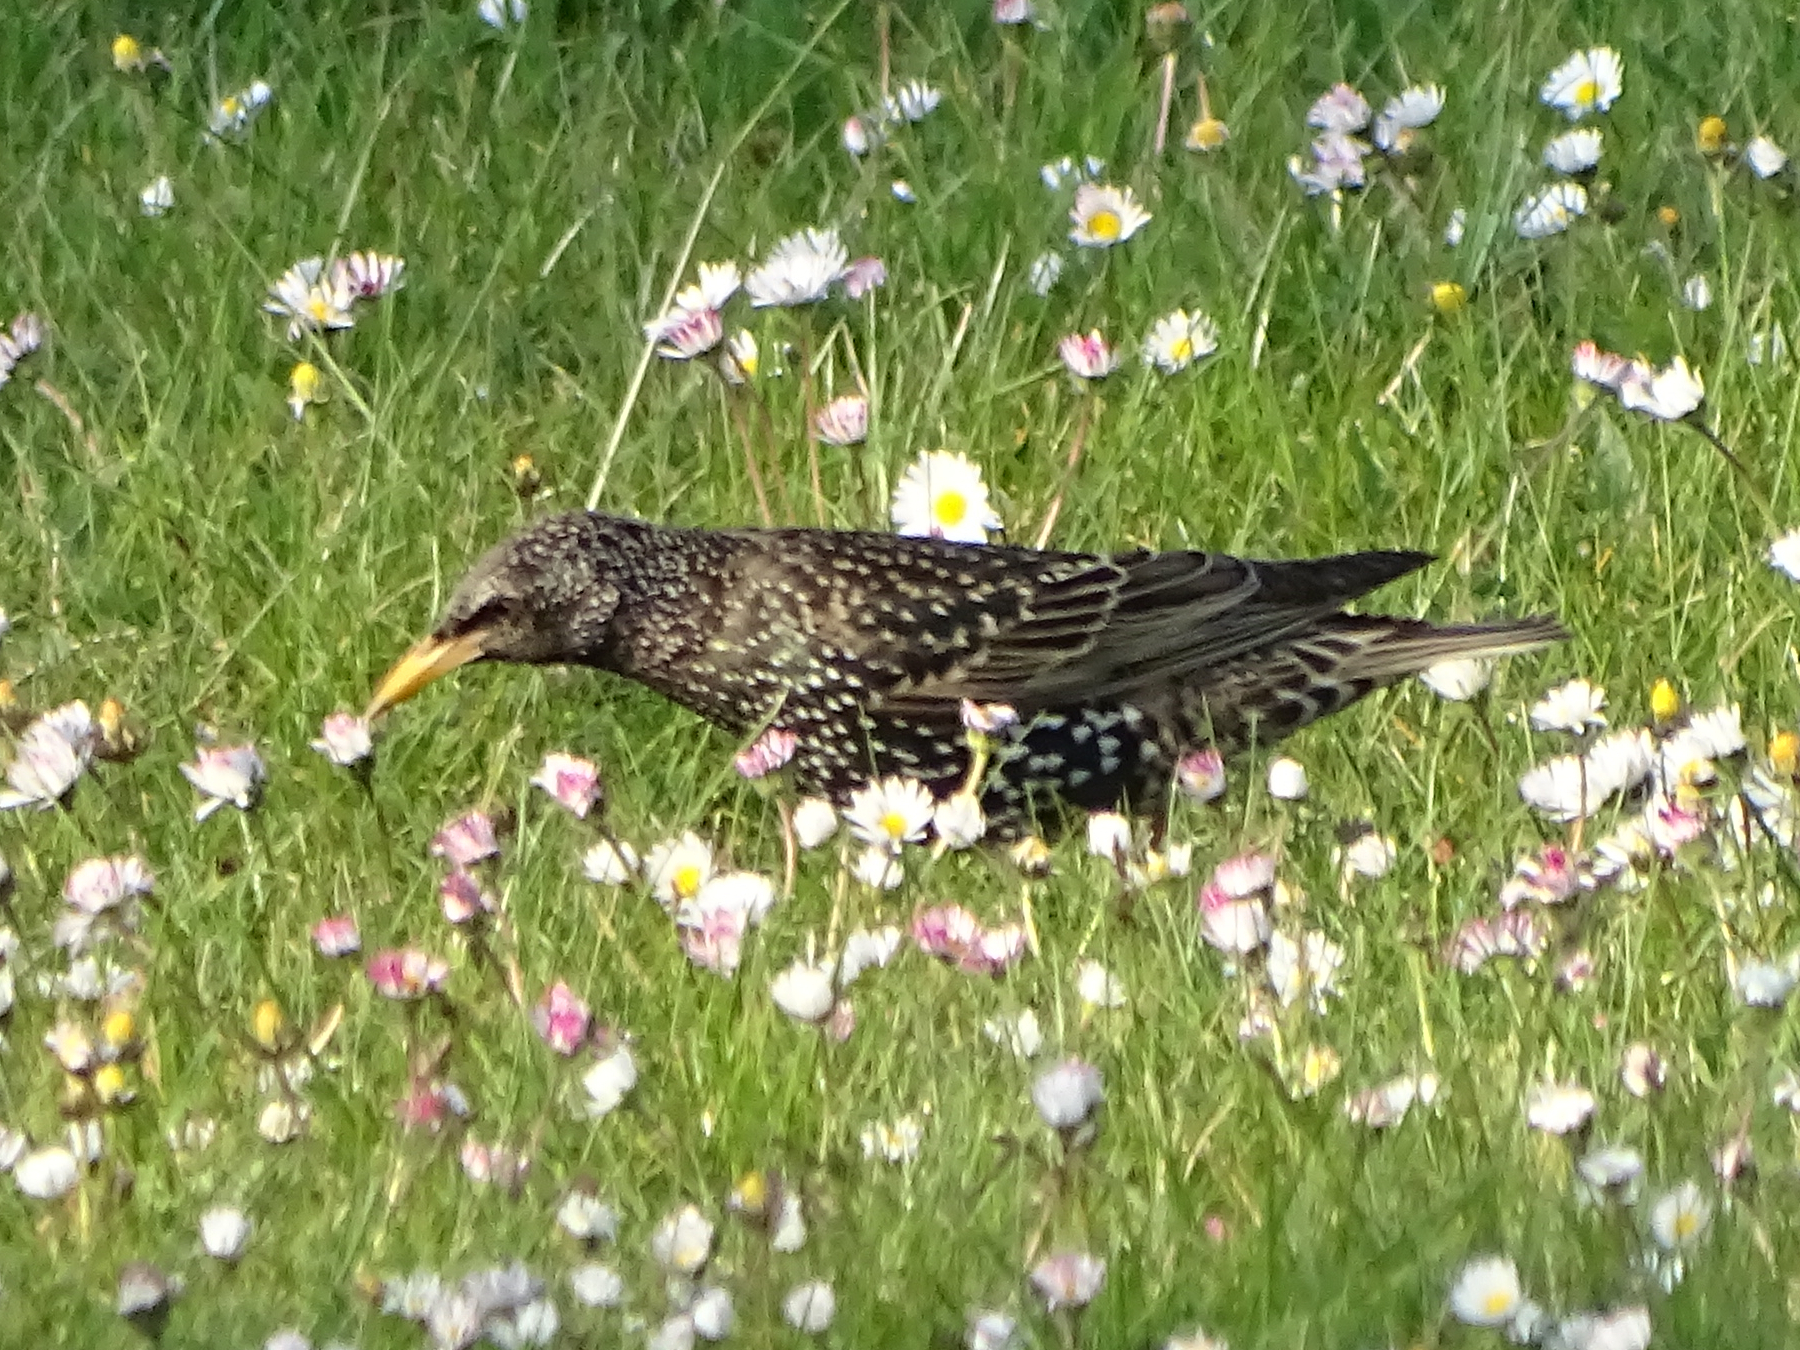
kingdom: Animalia
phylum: Chordata
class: Aves
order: Passeriformes
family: Sturnidae
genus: Sturnus
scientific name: Sturnus vulgaris
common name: Common starling
